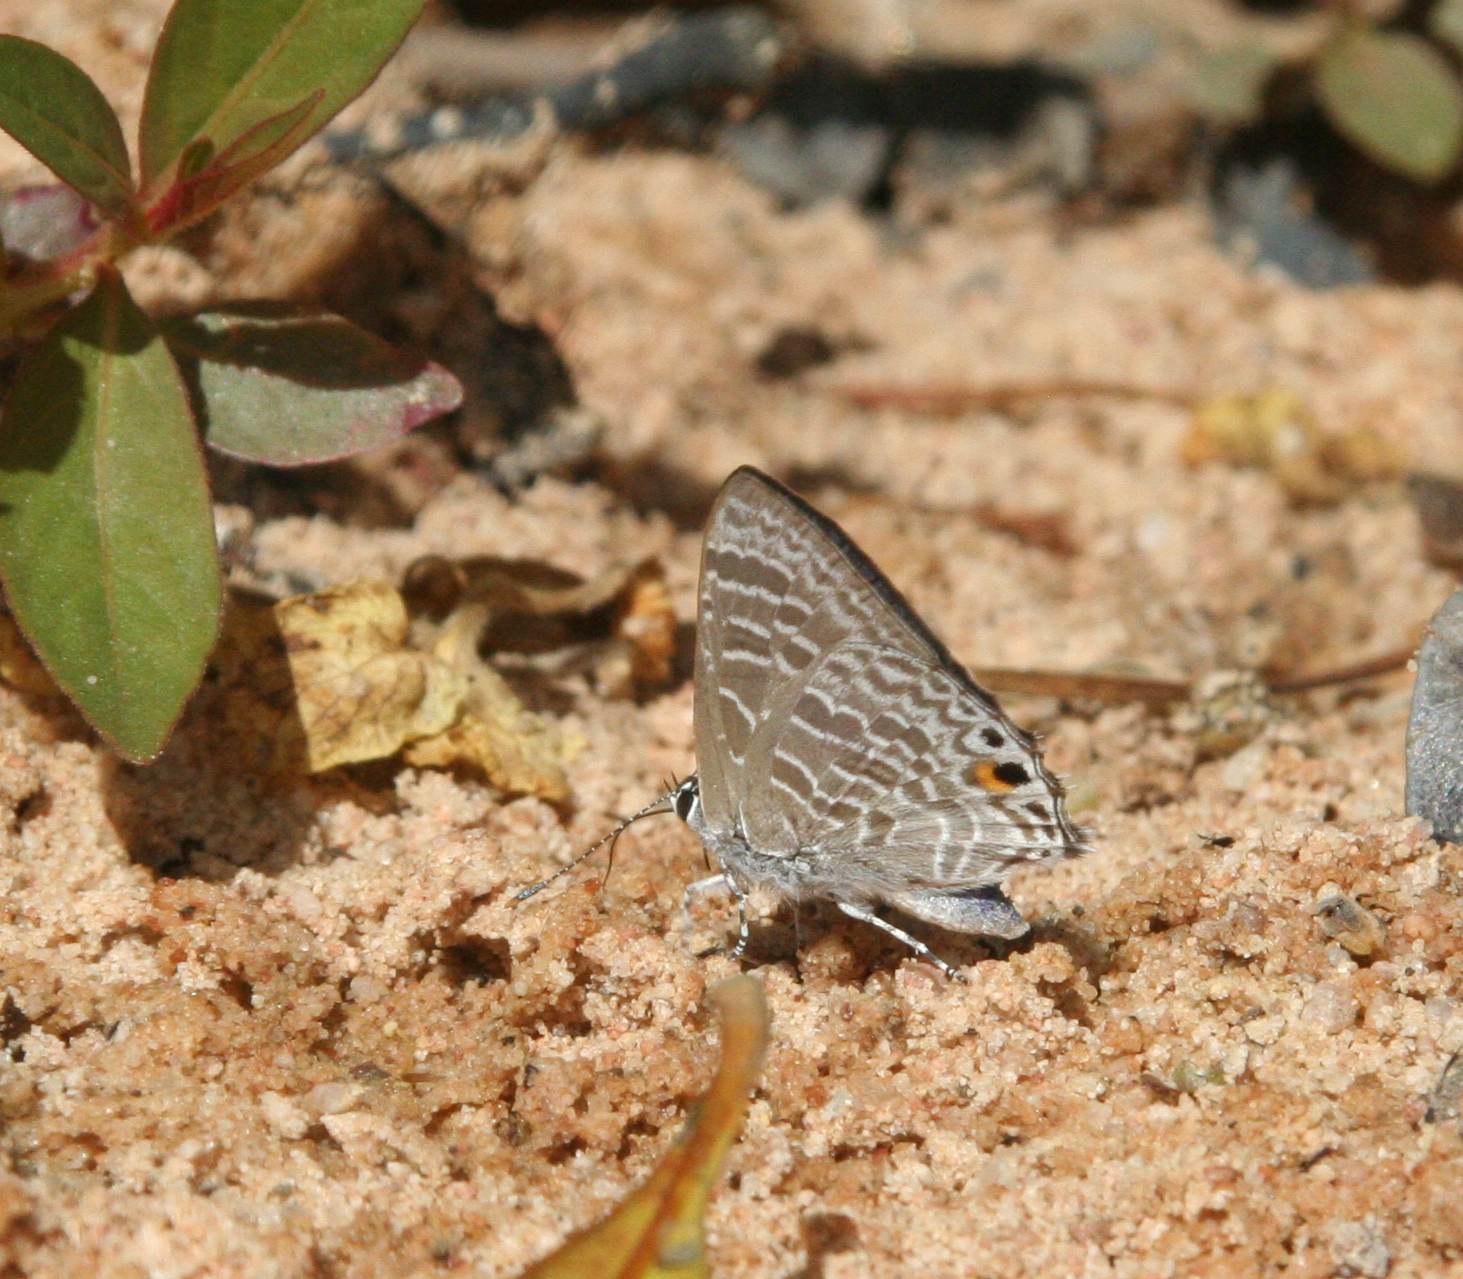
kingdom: Animalia
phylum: Arthropoda
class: Insecta
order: Lepidoptera
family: Lycaenidae
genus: Anthene
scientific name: Anthene licates
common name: White ciliate blue
